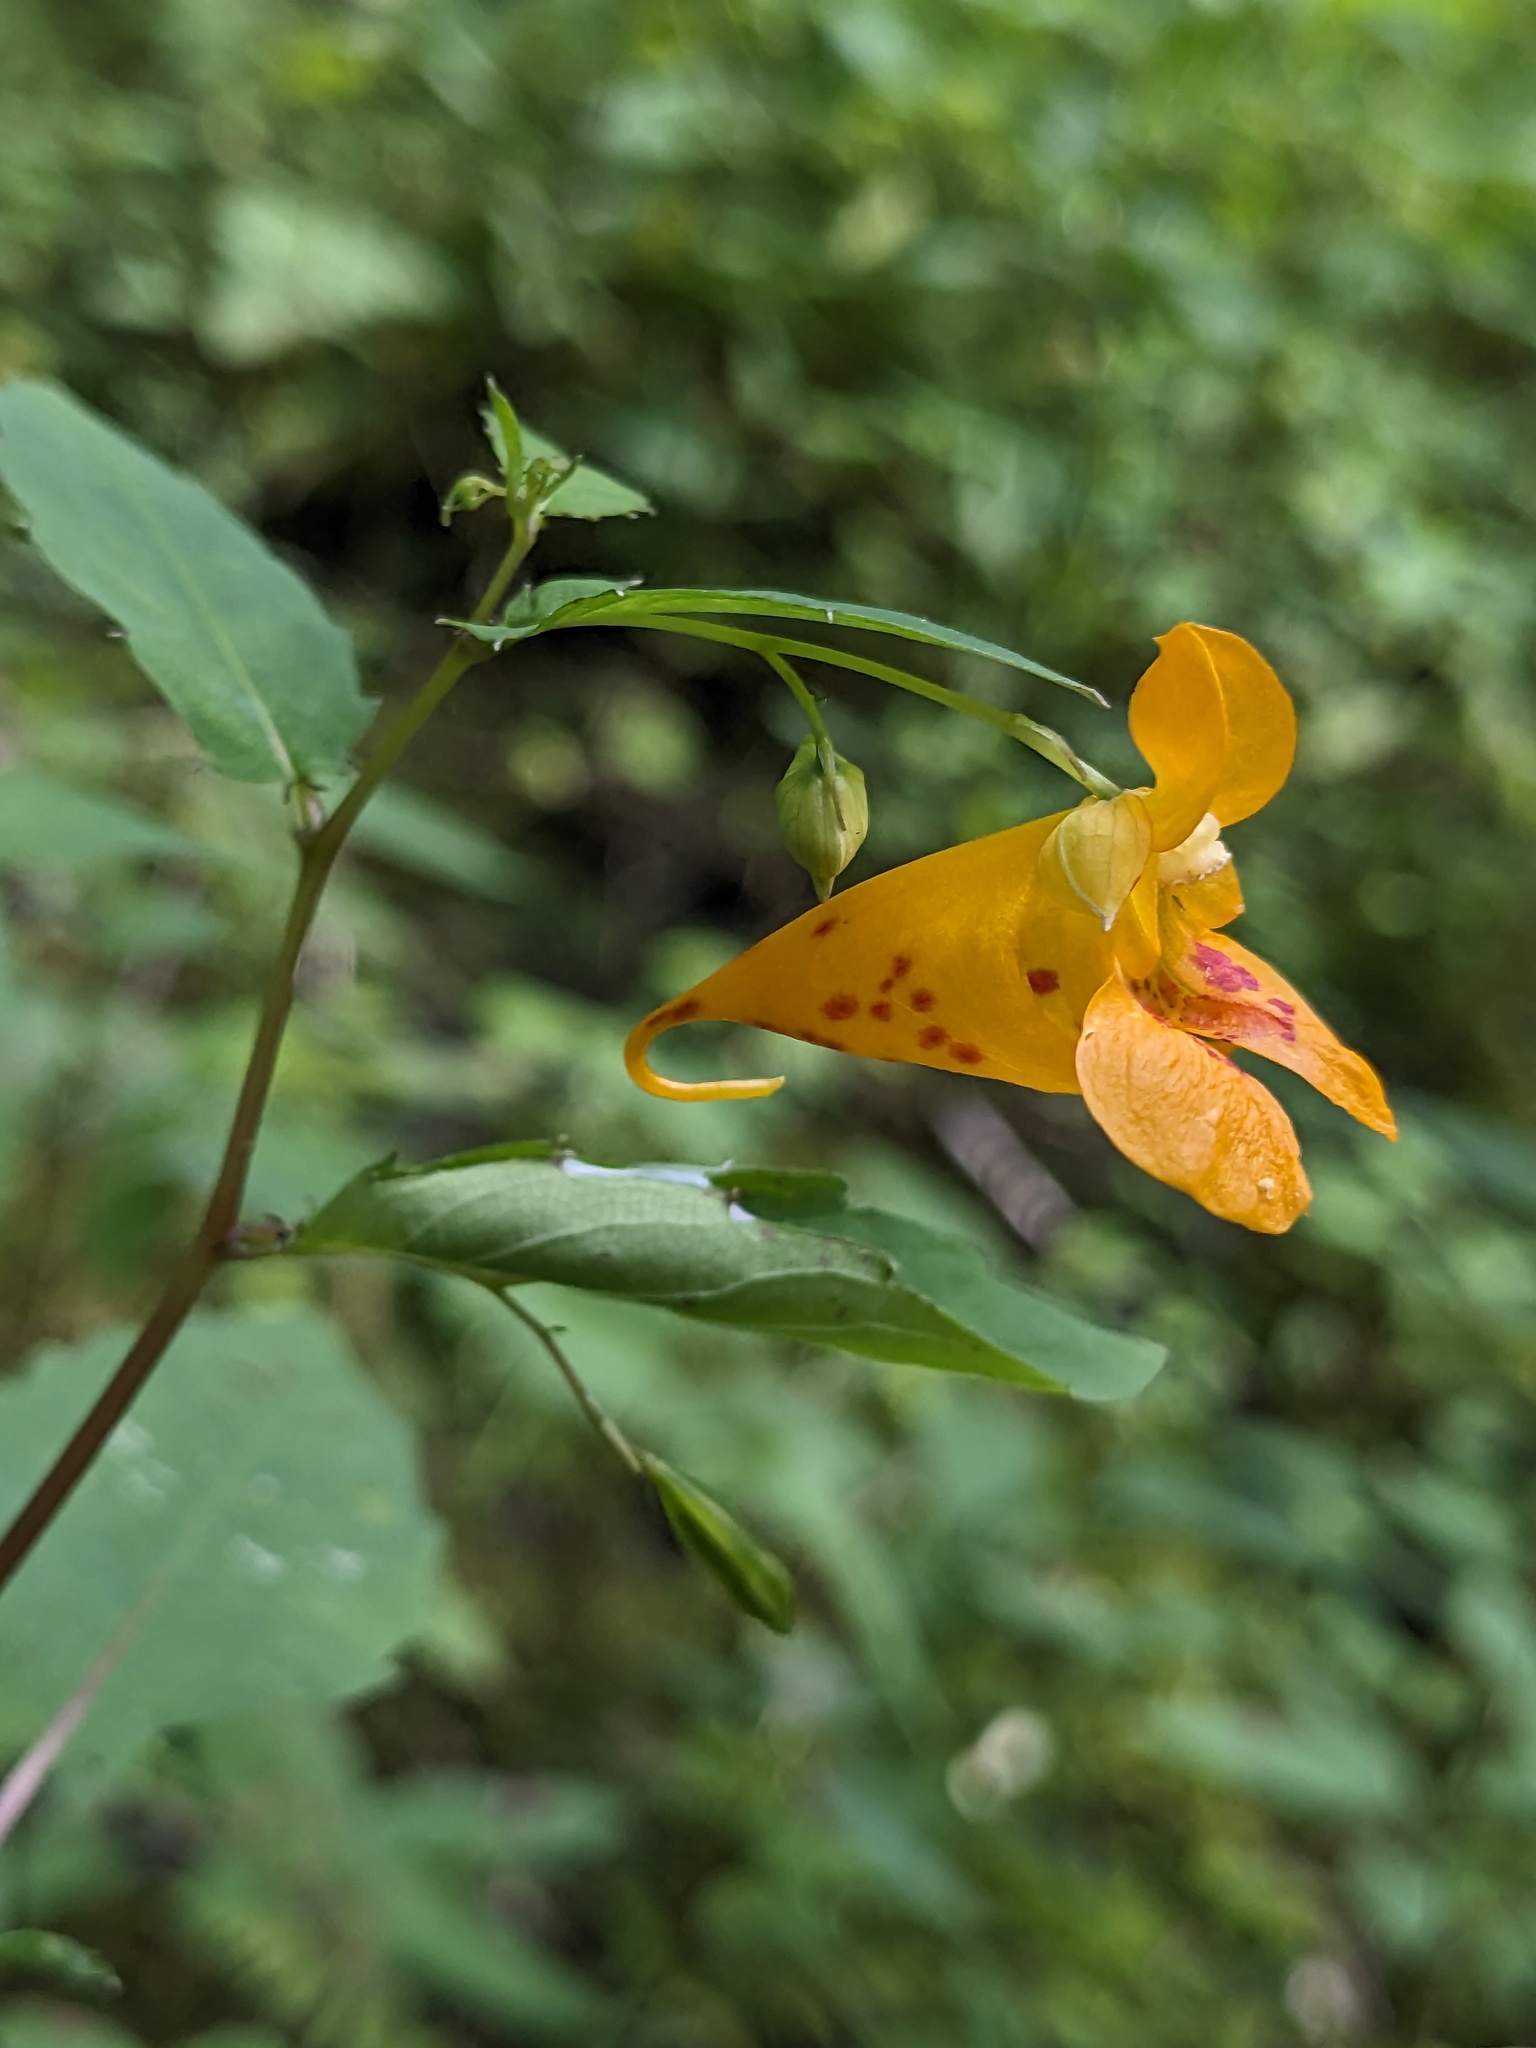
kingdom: Plantae
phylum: Tracheophyta
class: Magnoliopsida
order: Ericales
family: Balsaminaceae
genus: Impatiens
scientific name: Impatiens capensis
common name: Orange balsam
